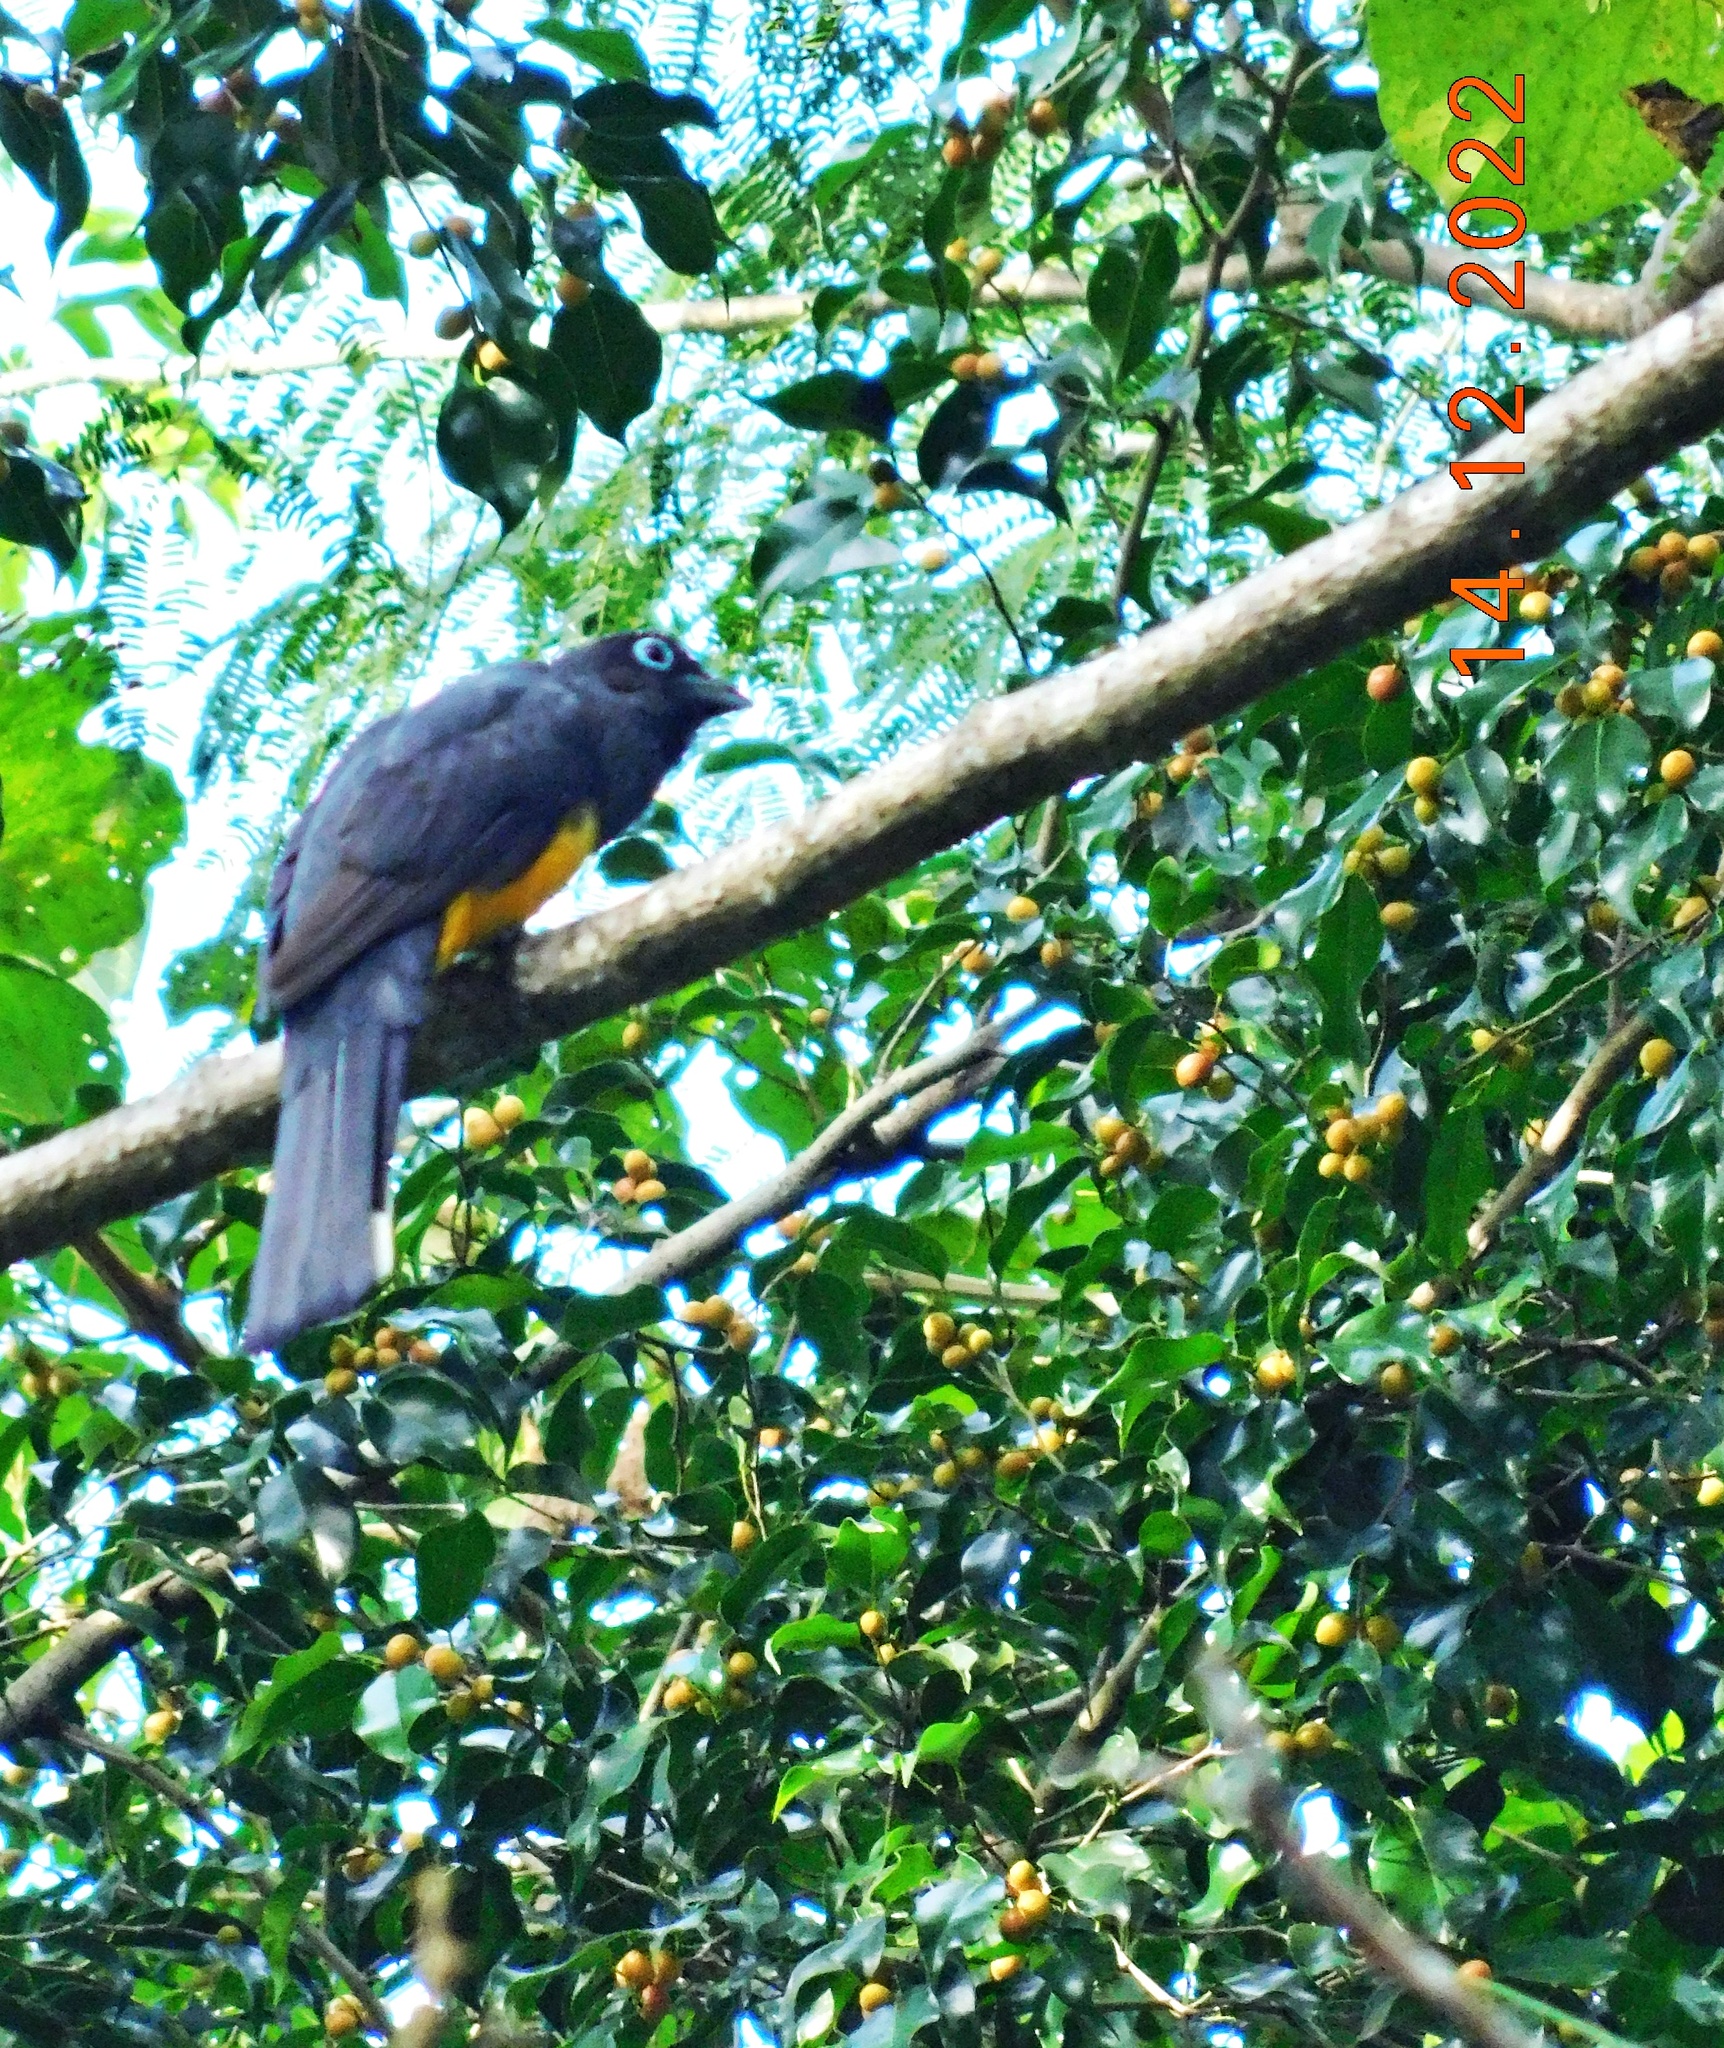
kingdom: Animalia
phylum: Chordata
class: Aves
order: Trogoniformes
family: Trogonidae
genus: Trogon
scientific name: Trogon melanocephalus
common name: Black-headed trogon
